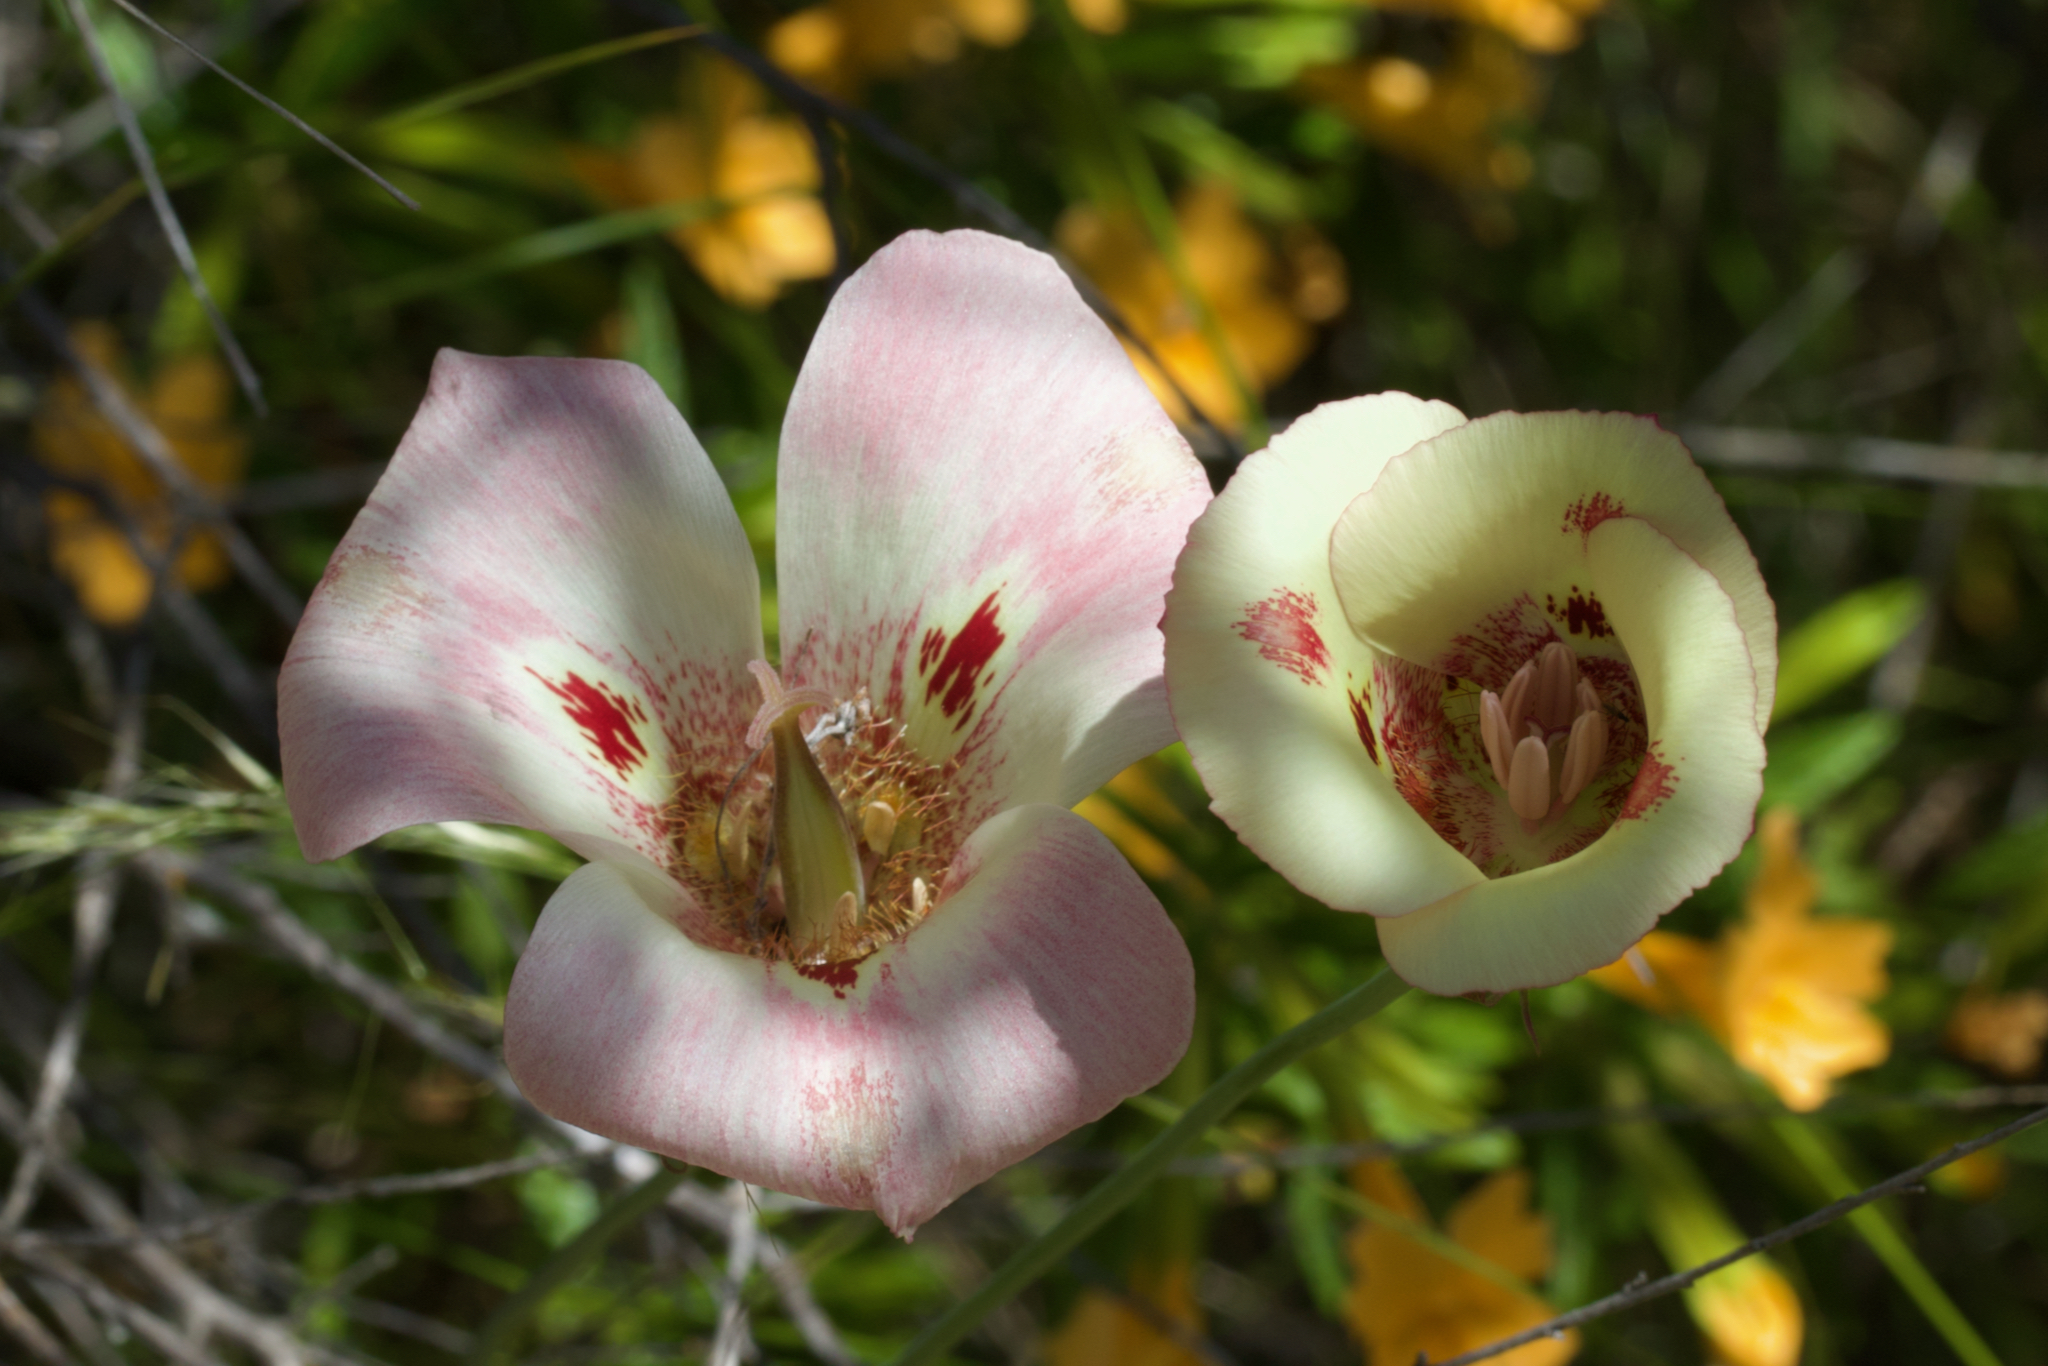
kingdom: Plantae
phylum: Tracheophyta
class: Liliopsida
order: Liliales
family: Liliaceae
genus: Calochortus
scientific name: Calochortus venustus
